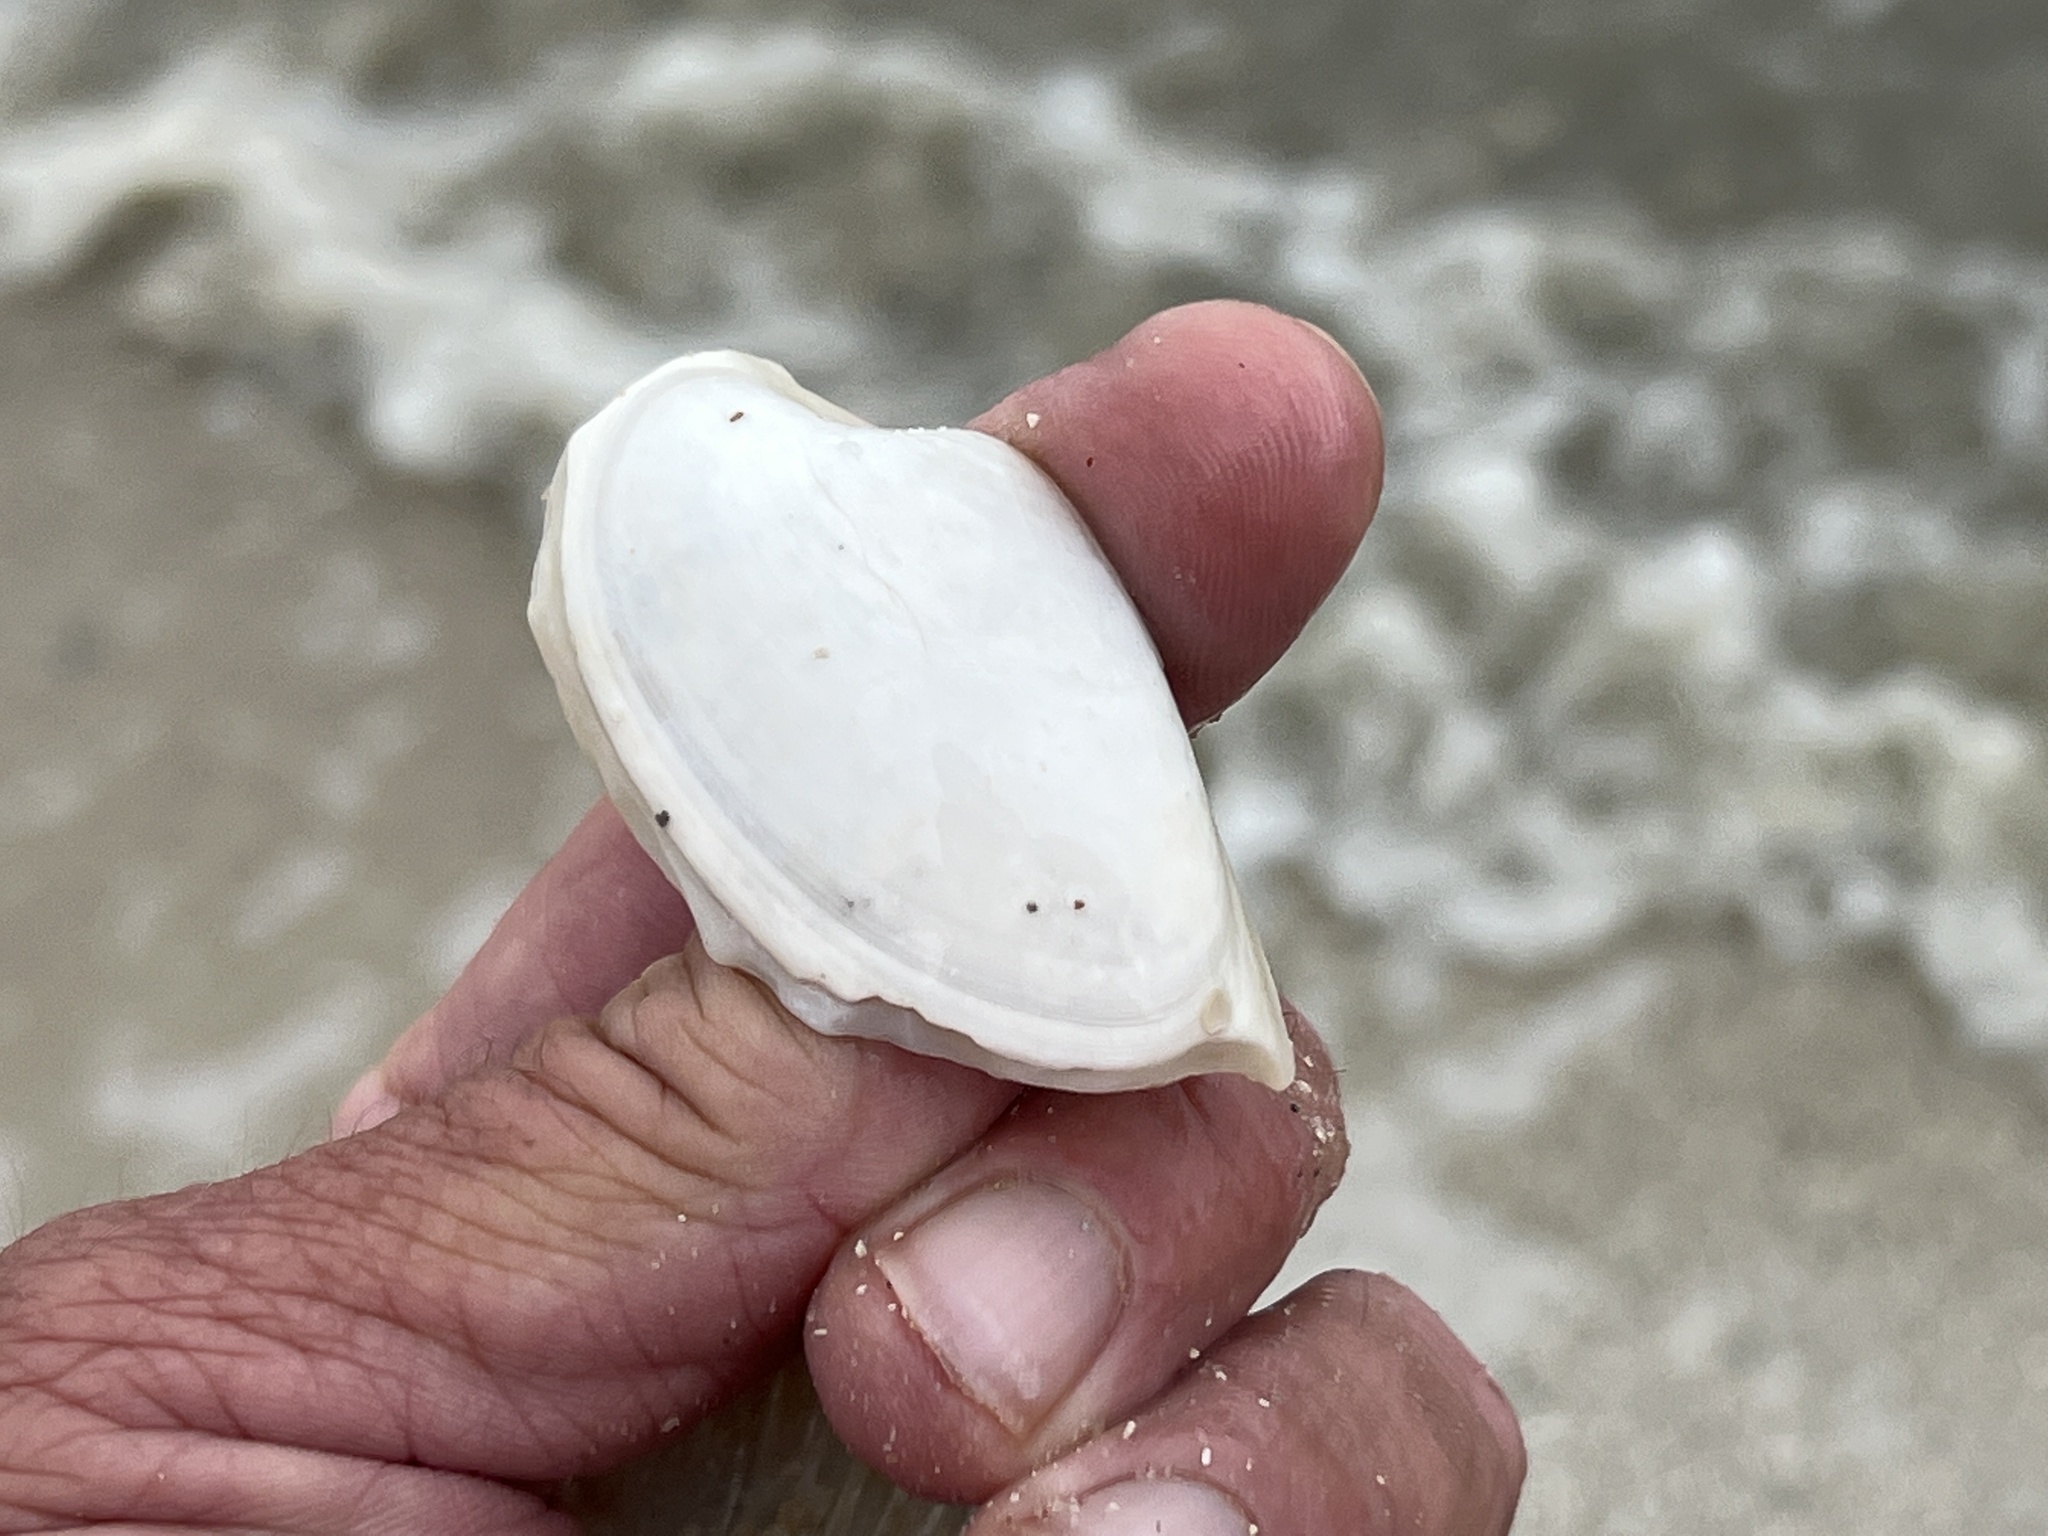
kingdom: Animalia
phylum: Mollusca
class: Bivalvia
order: Venerida
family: Veneridae
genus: Macrocallista
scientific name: Macrocallista nimbosa
